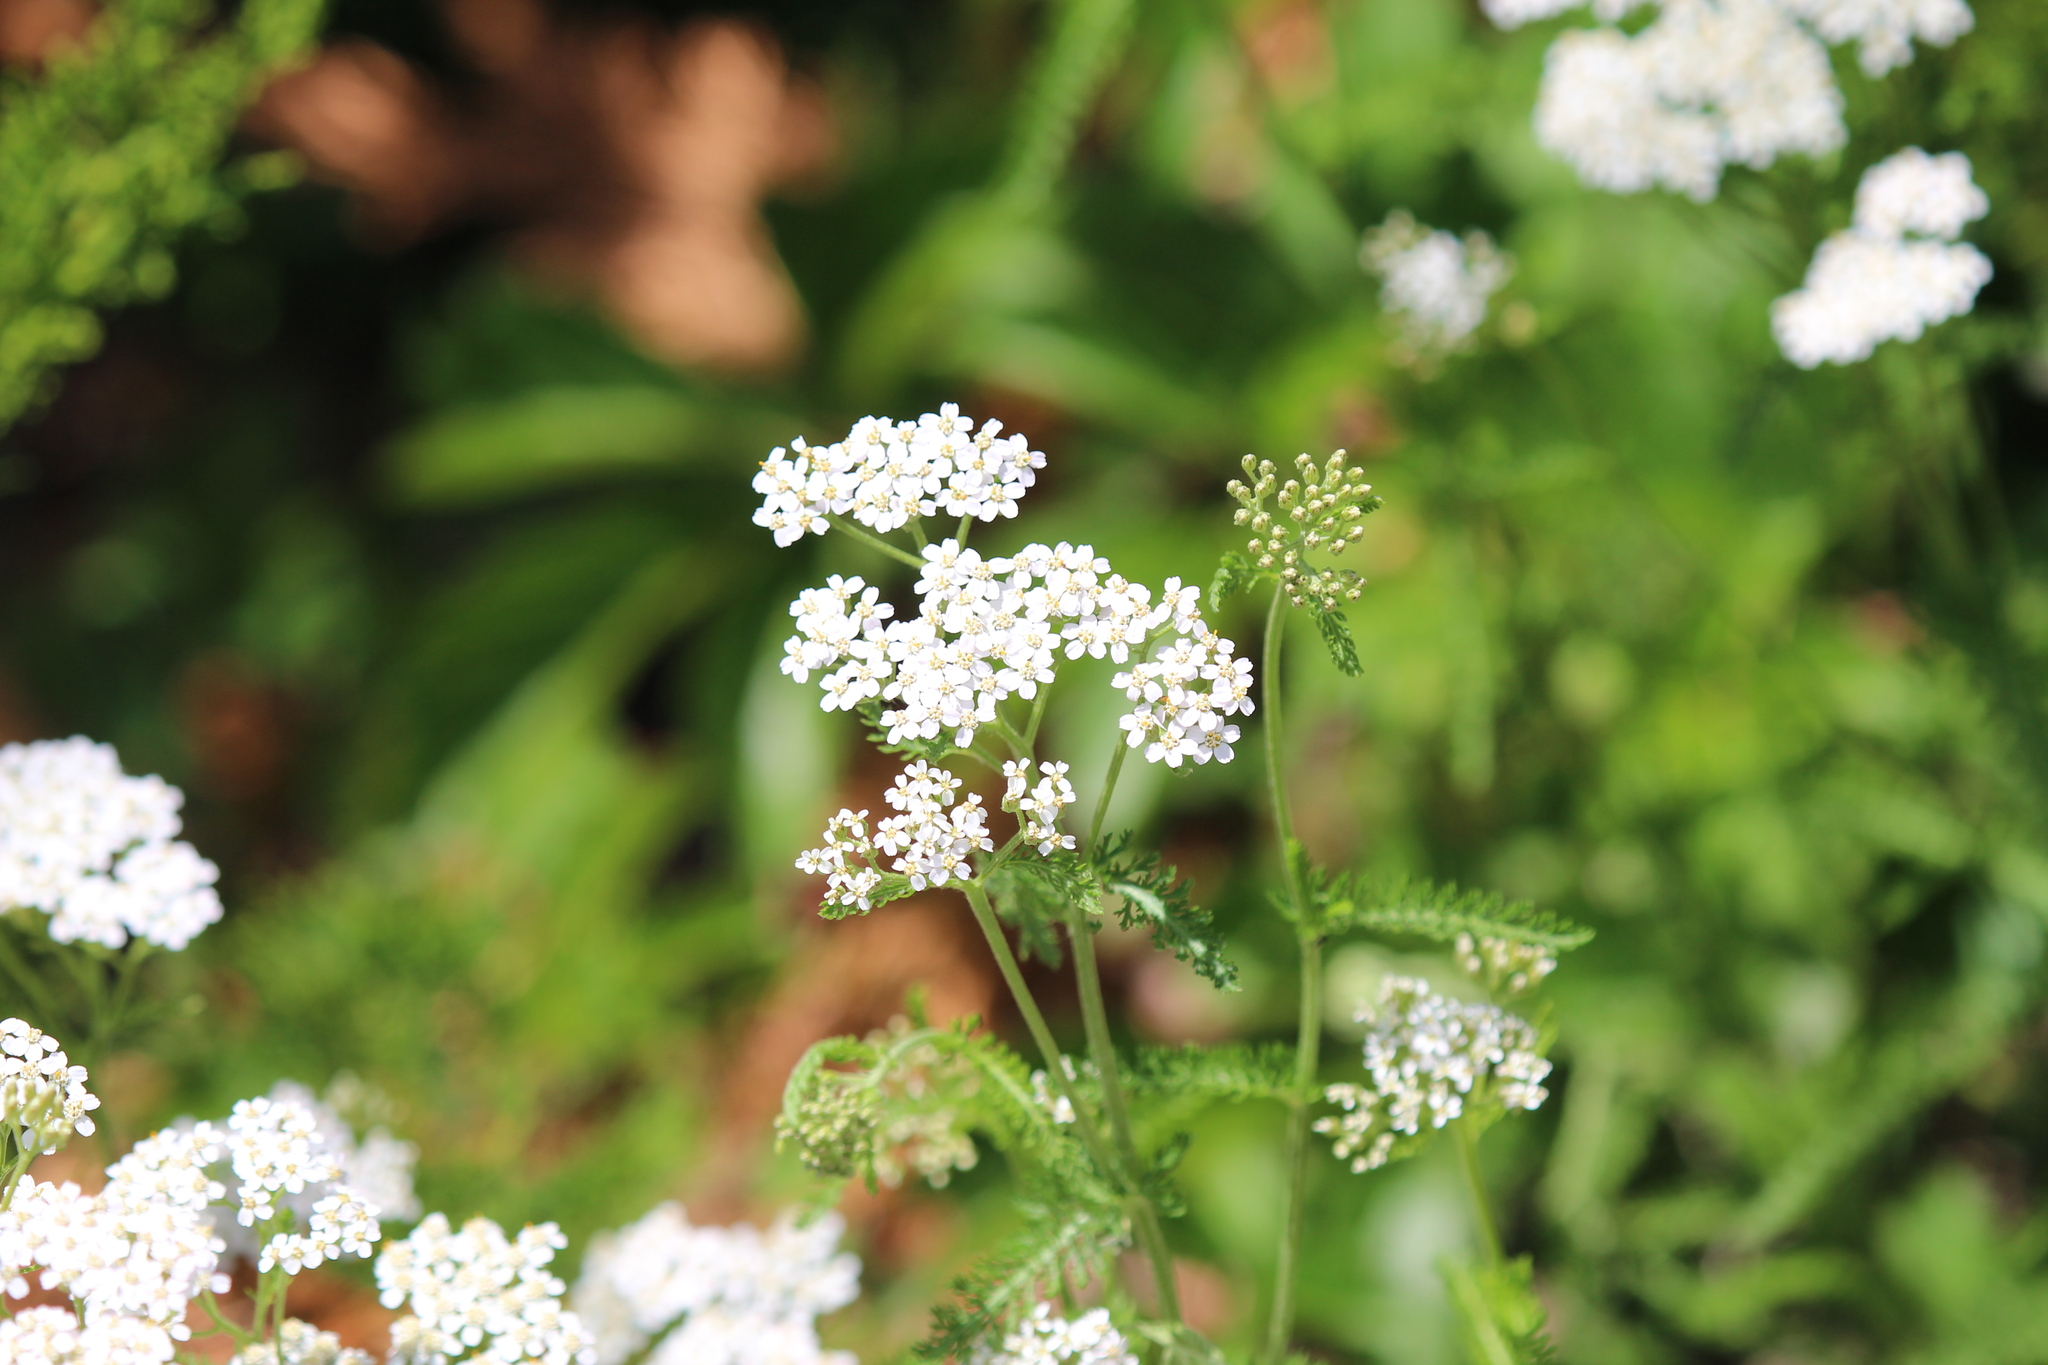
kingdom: Plantae
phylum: Tracheophyta
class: Magnoliopsida
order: Asterales
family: Asteraceae
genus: Achillea
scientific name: Achillea millefolium
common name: Yarrow
